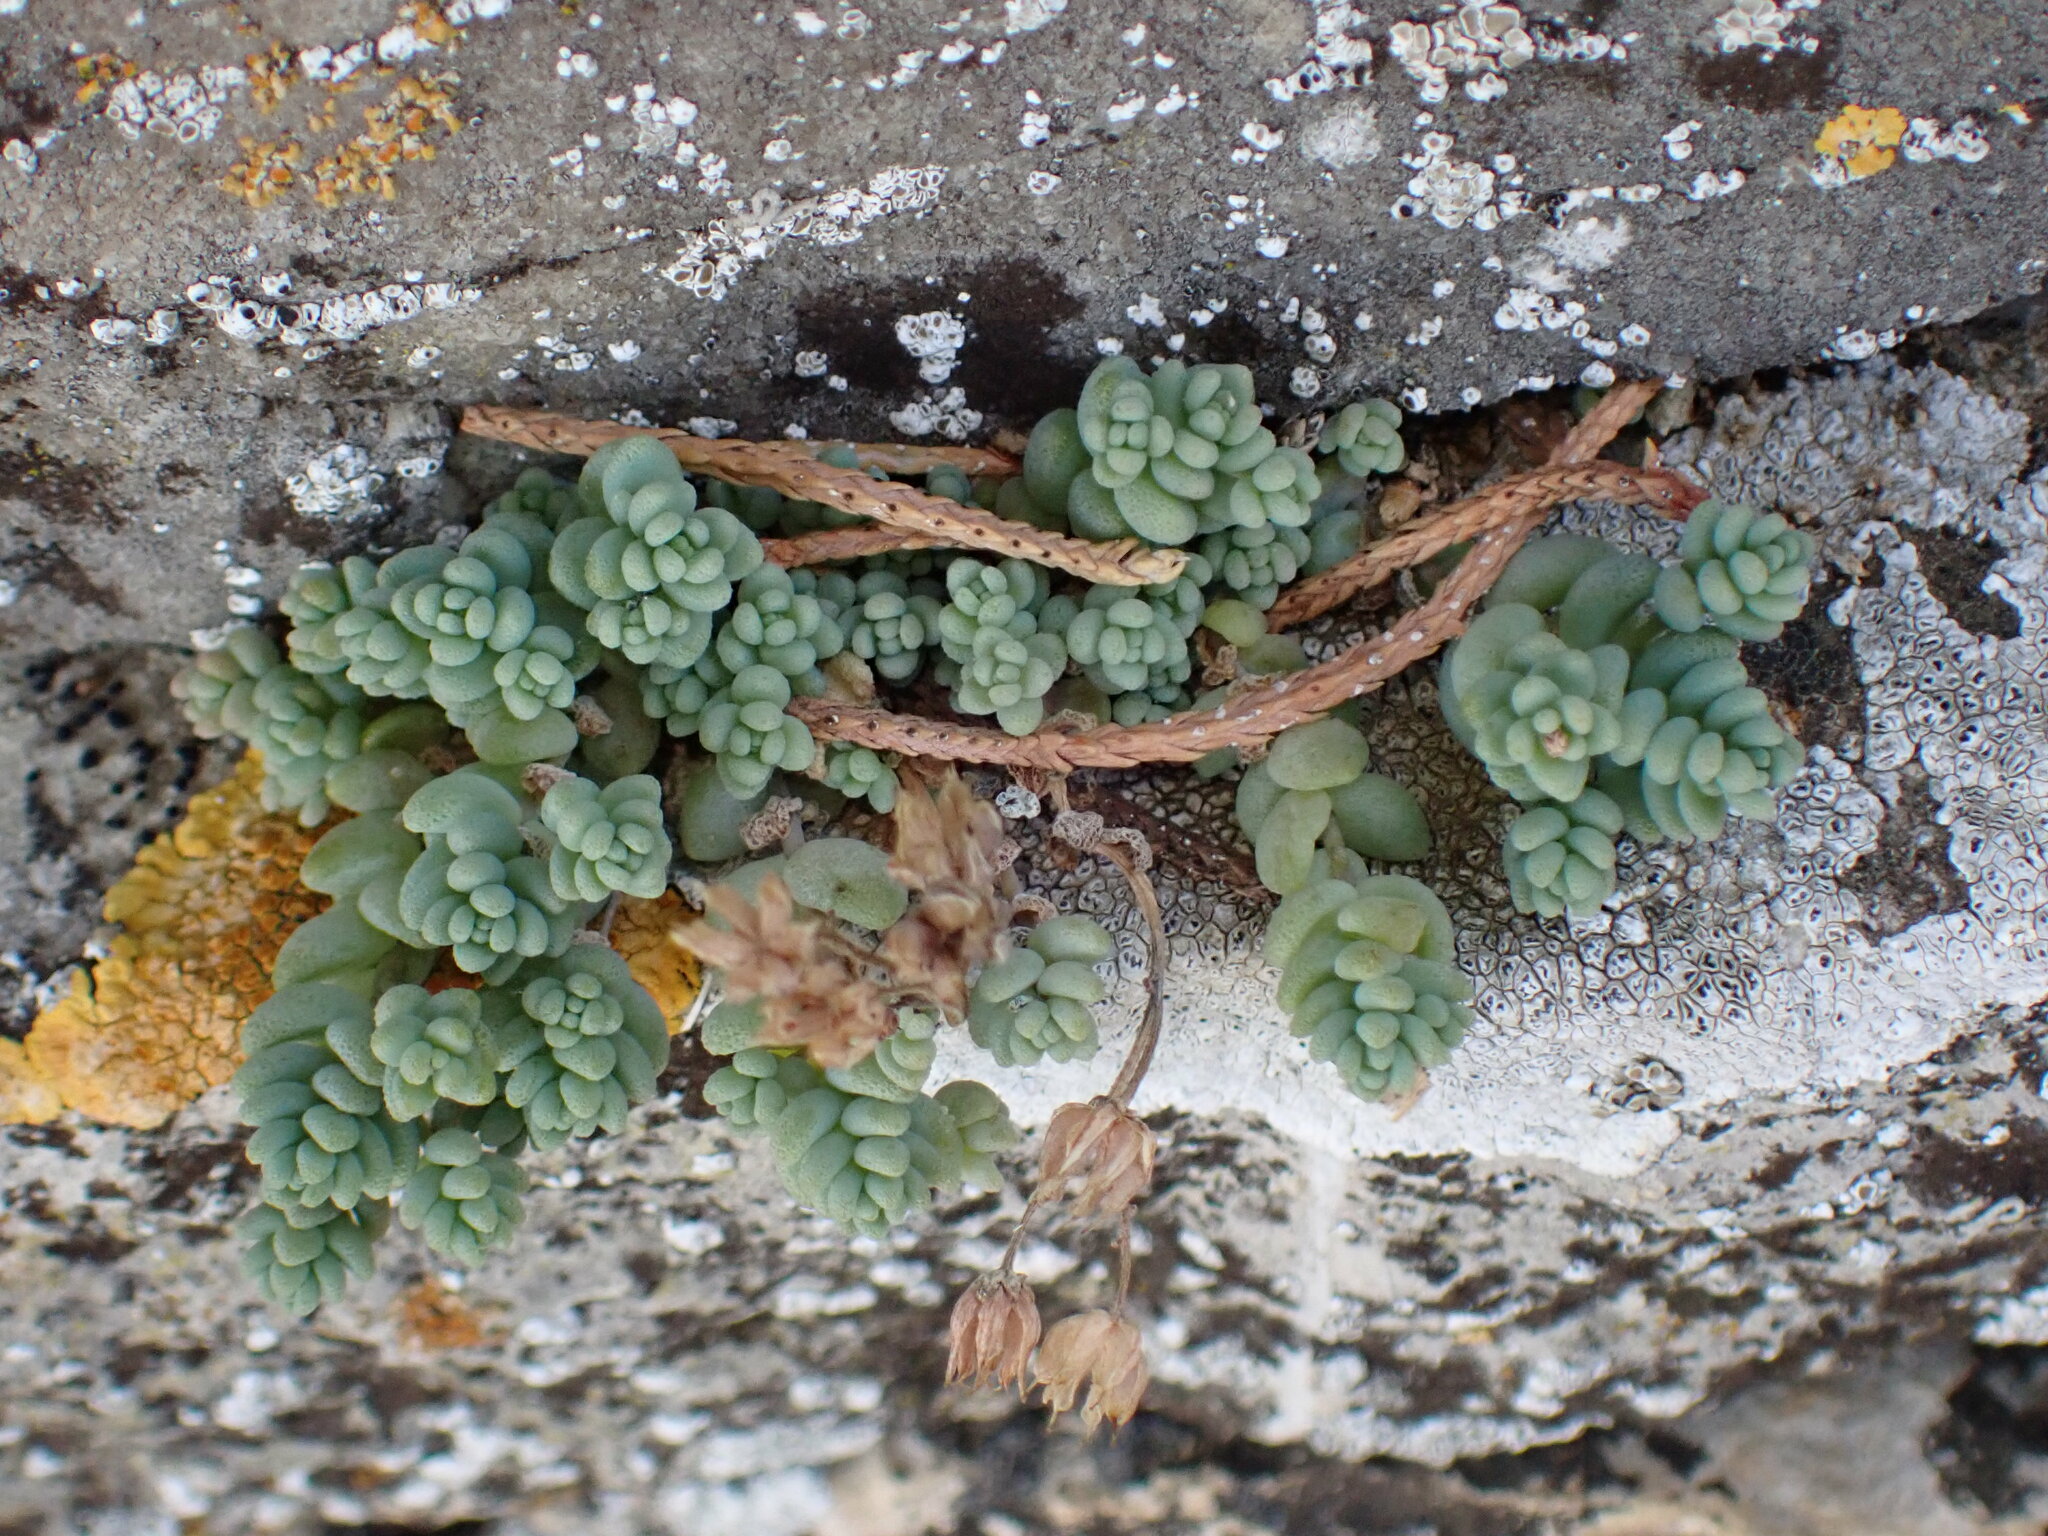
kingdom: Plantae
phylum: Tracheophyta
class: Magnoliopsida
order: Saxifragales
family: Crassulaceae
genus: Sedum
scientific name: Sedum dasyphyllum
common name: Thick-leaf stonecrop
